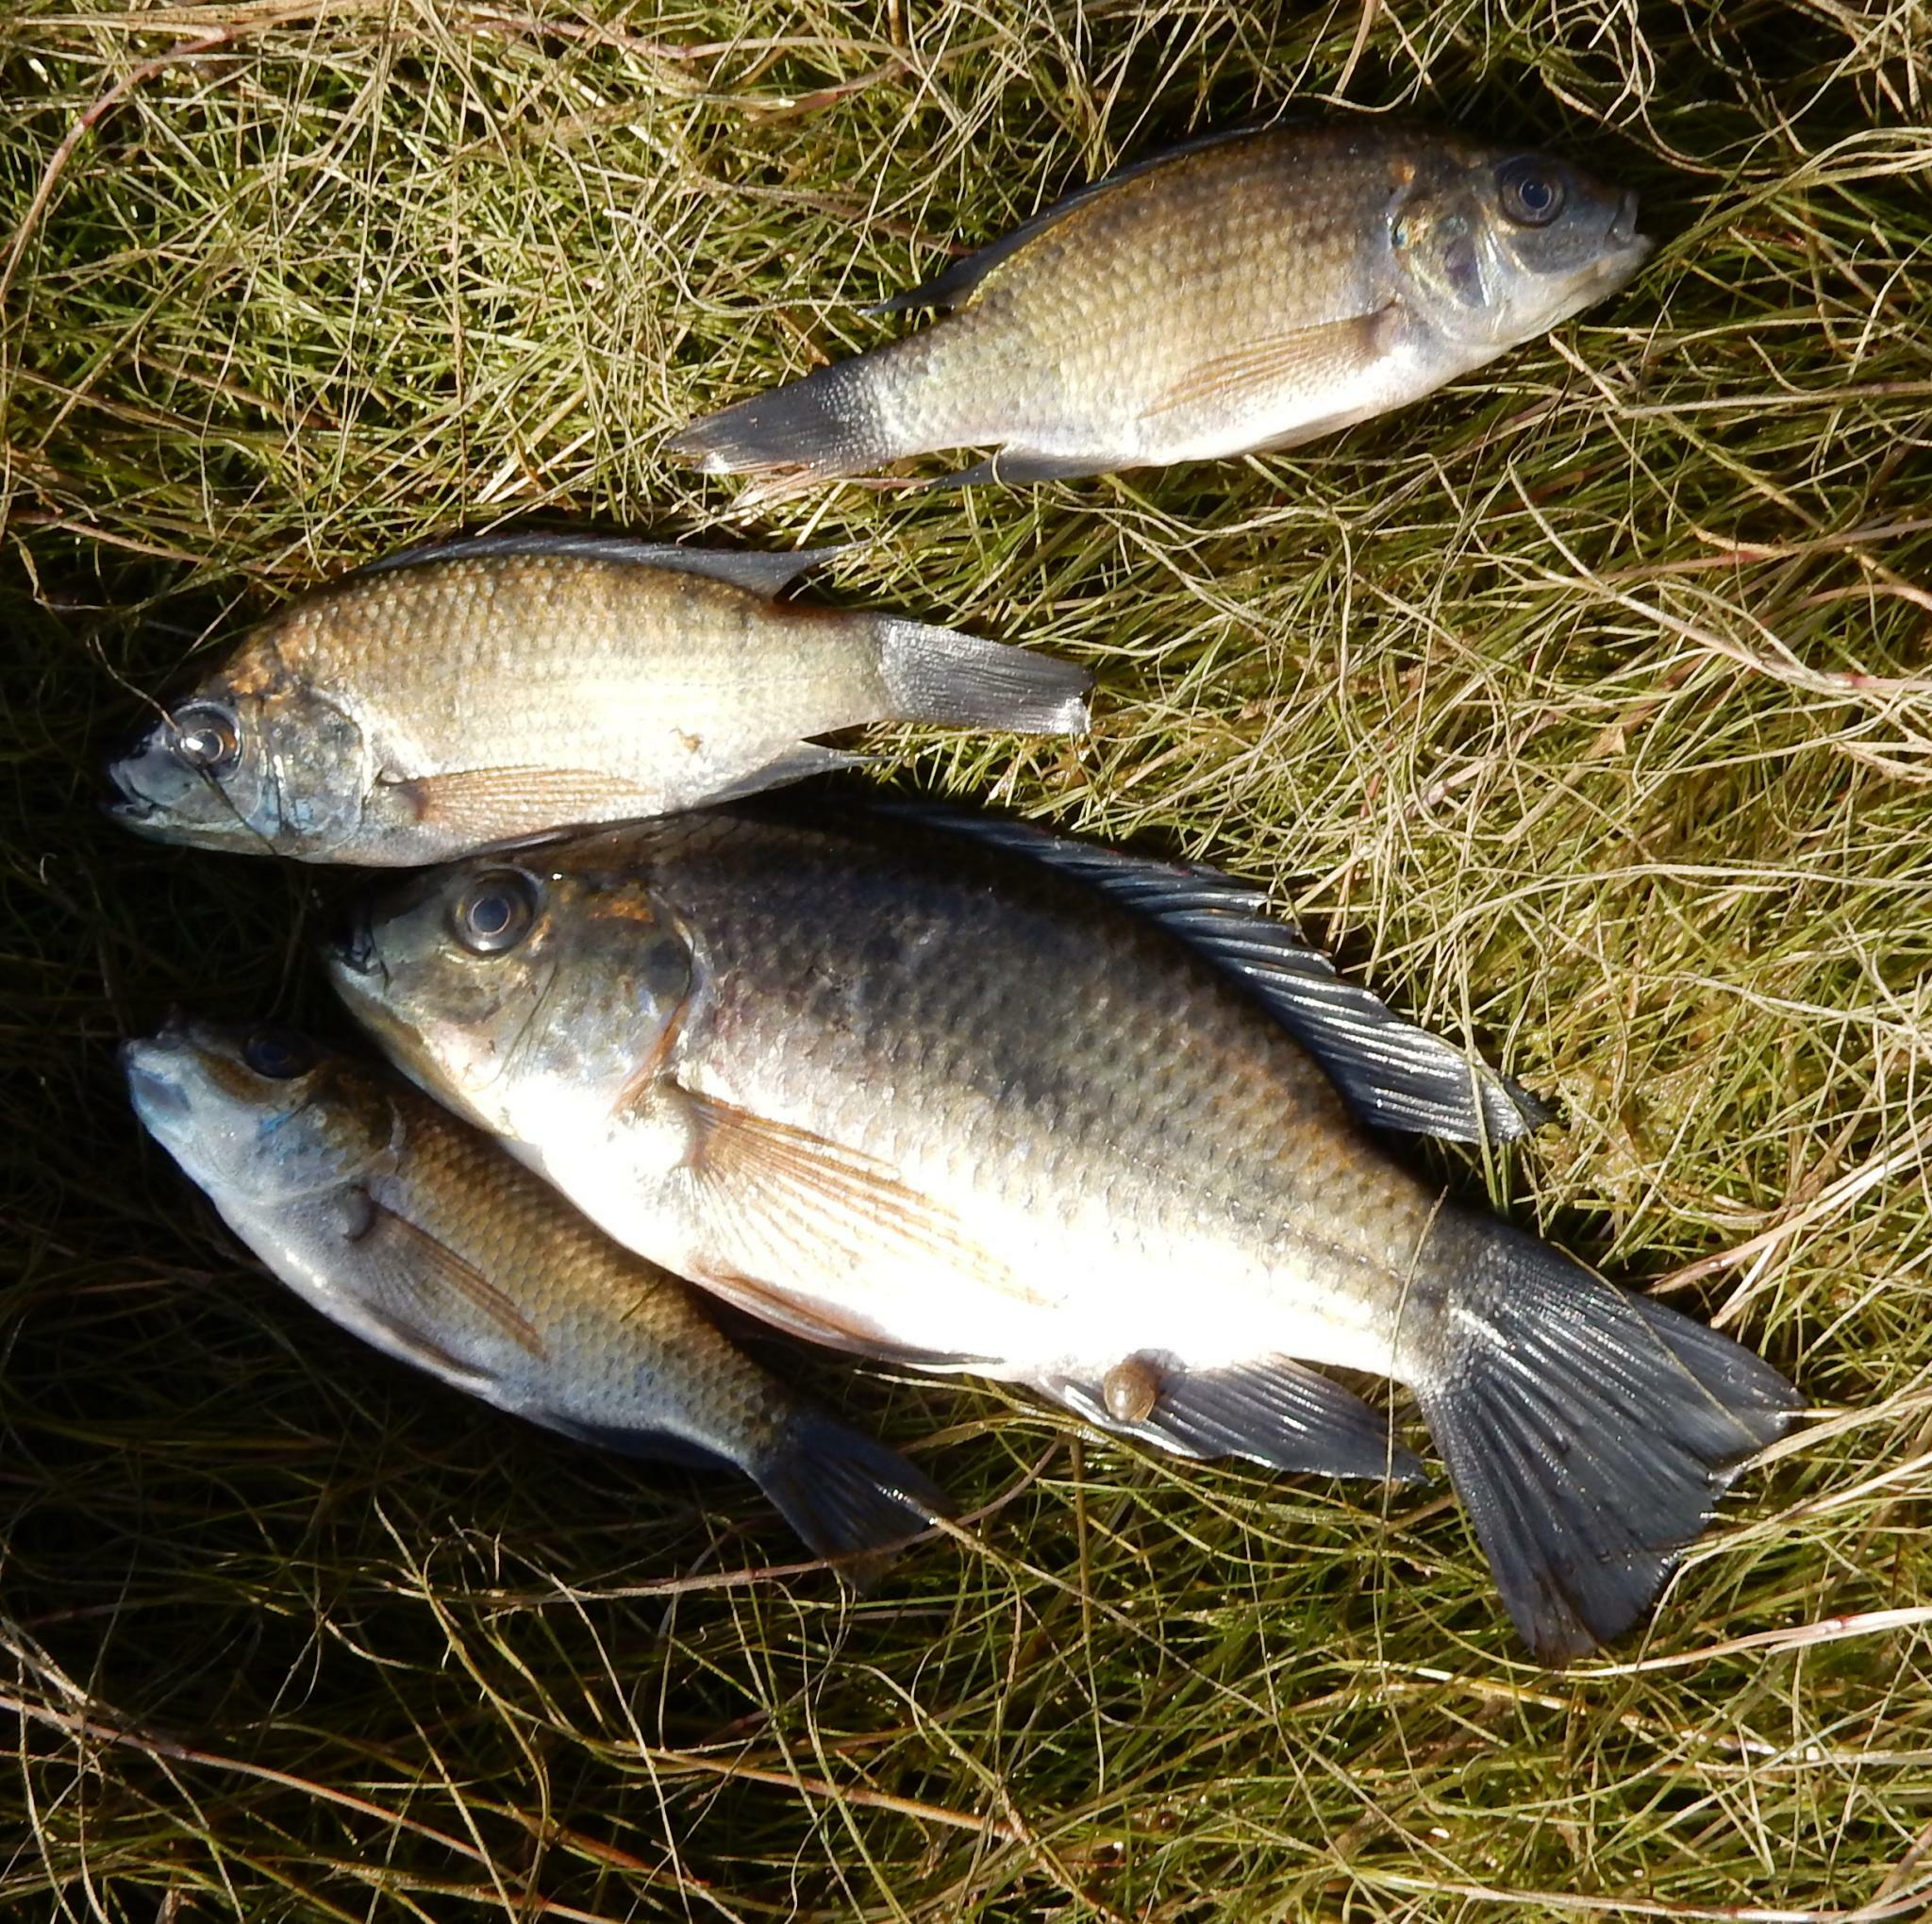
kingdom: Animalia
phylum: Chordata
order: Perciformes
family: Cichlidae
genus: Oreochromis
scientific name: Oreochromis mossambicus
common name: Mozambique tilapia
